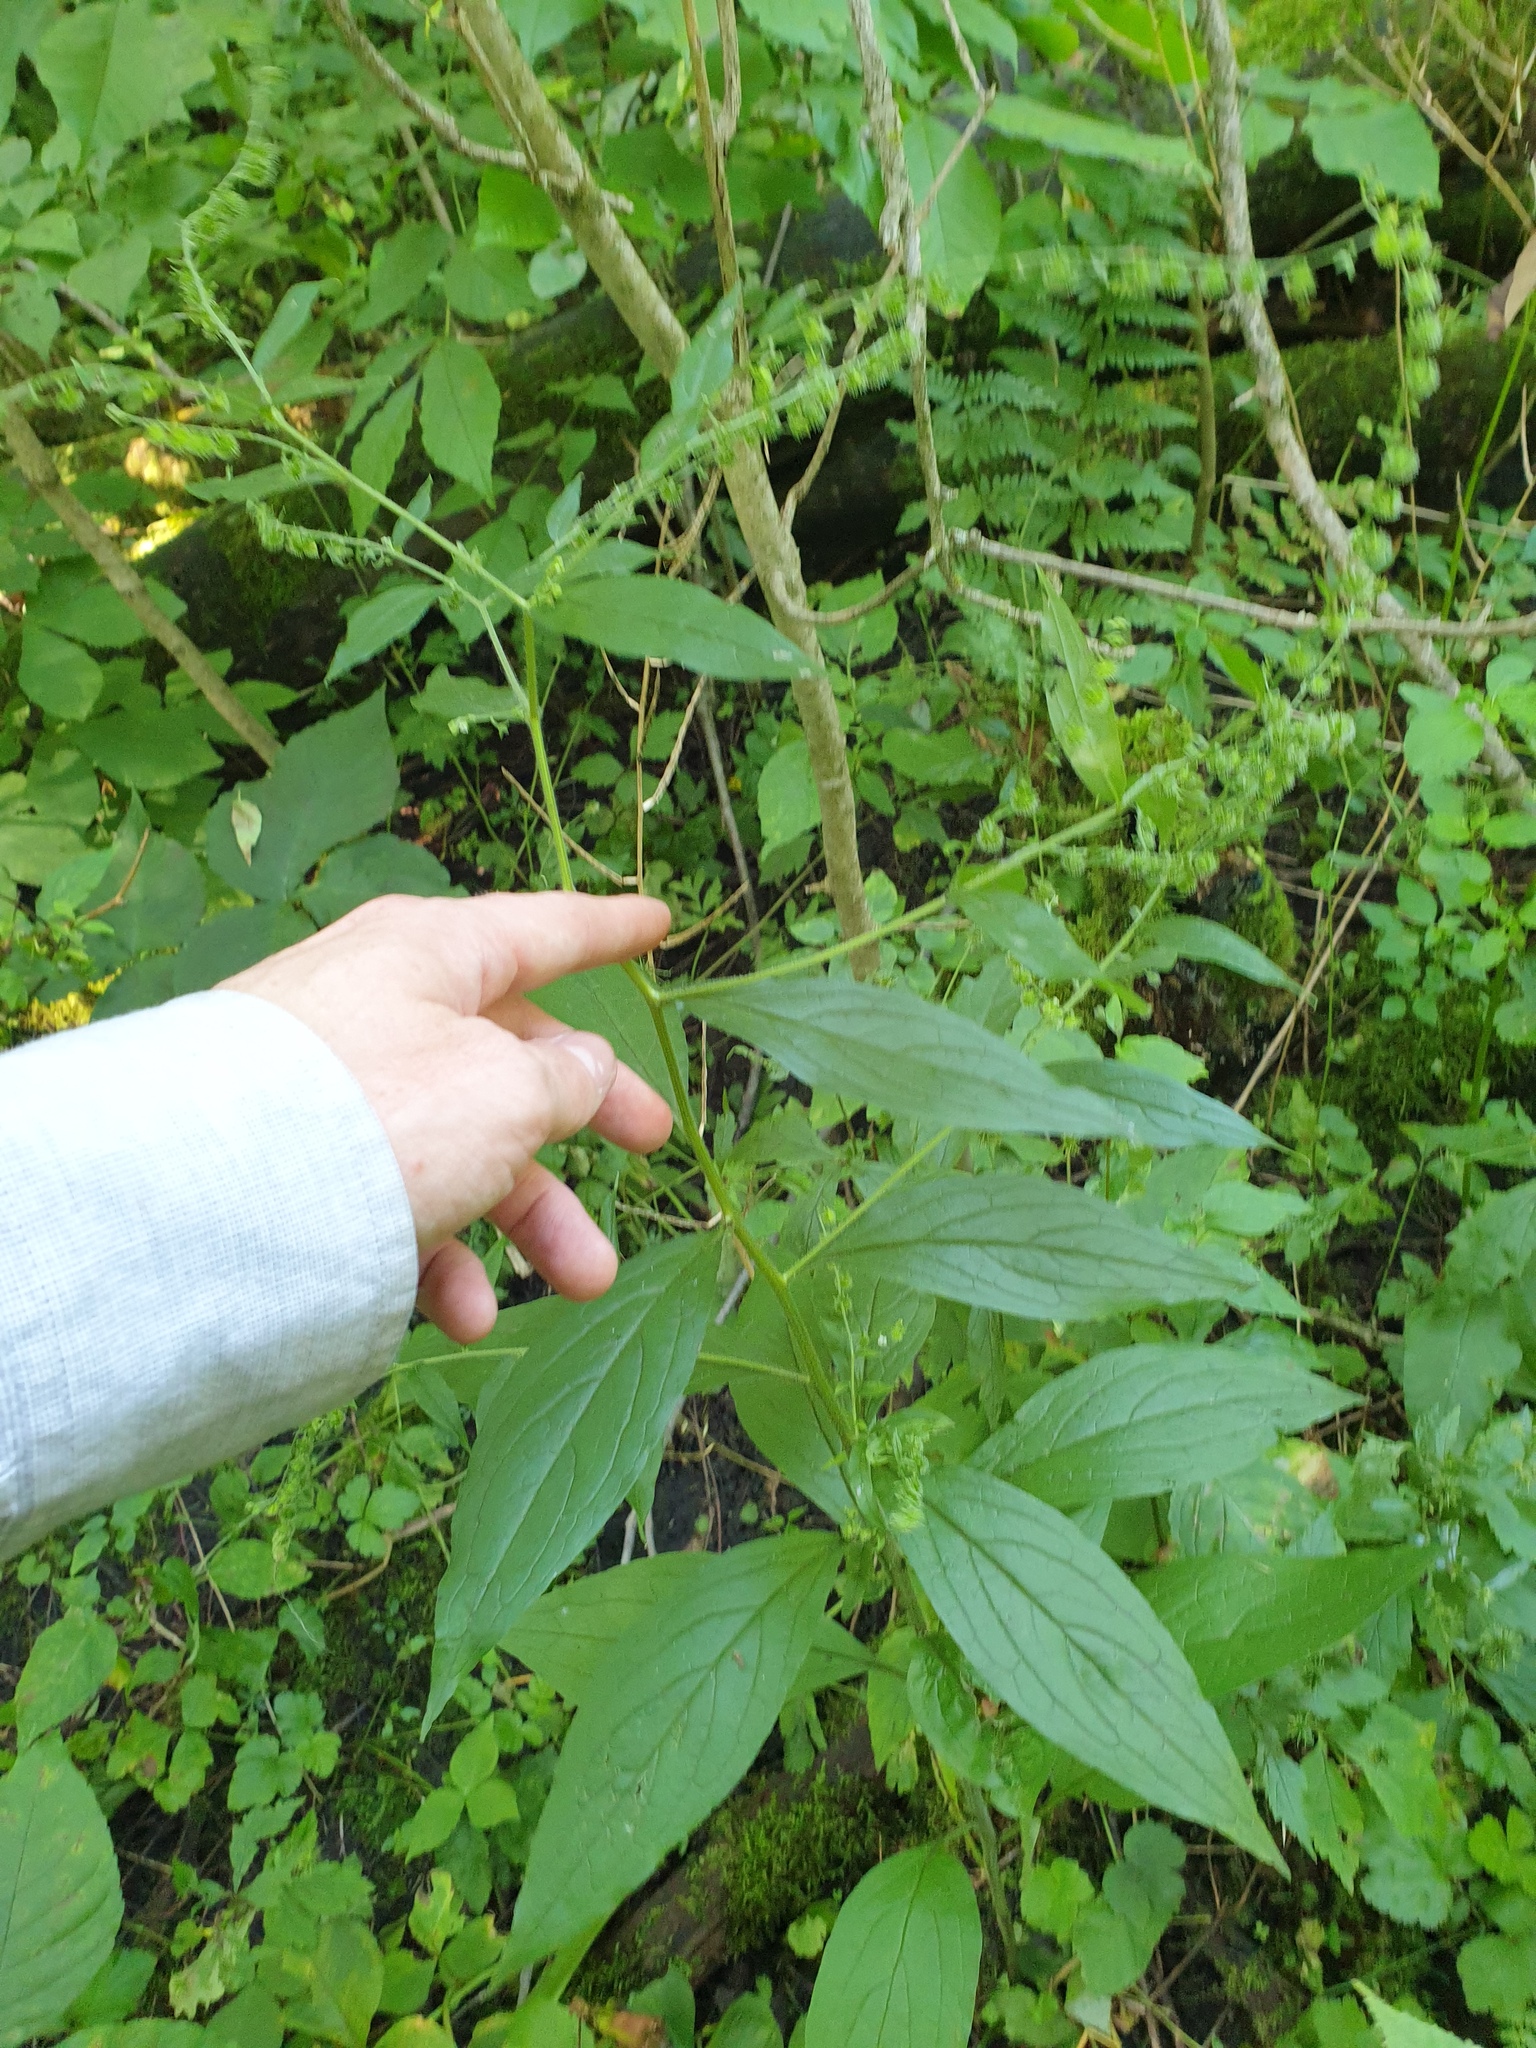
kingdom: Plantae
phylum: Tracheophyta
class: Magnoliopsida
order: Boraginales
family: Boraginaceae
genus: Hackelia
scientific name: Hackelia virginiana
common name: Beggar's-lice
